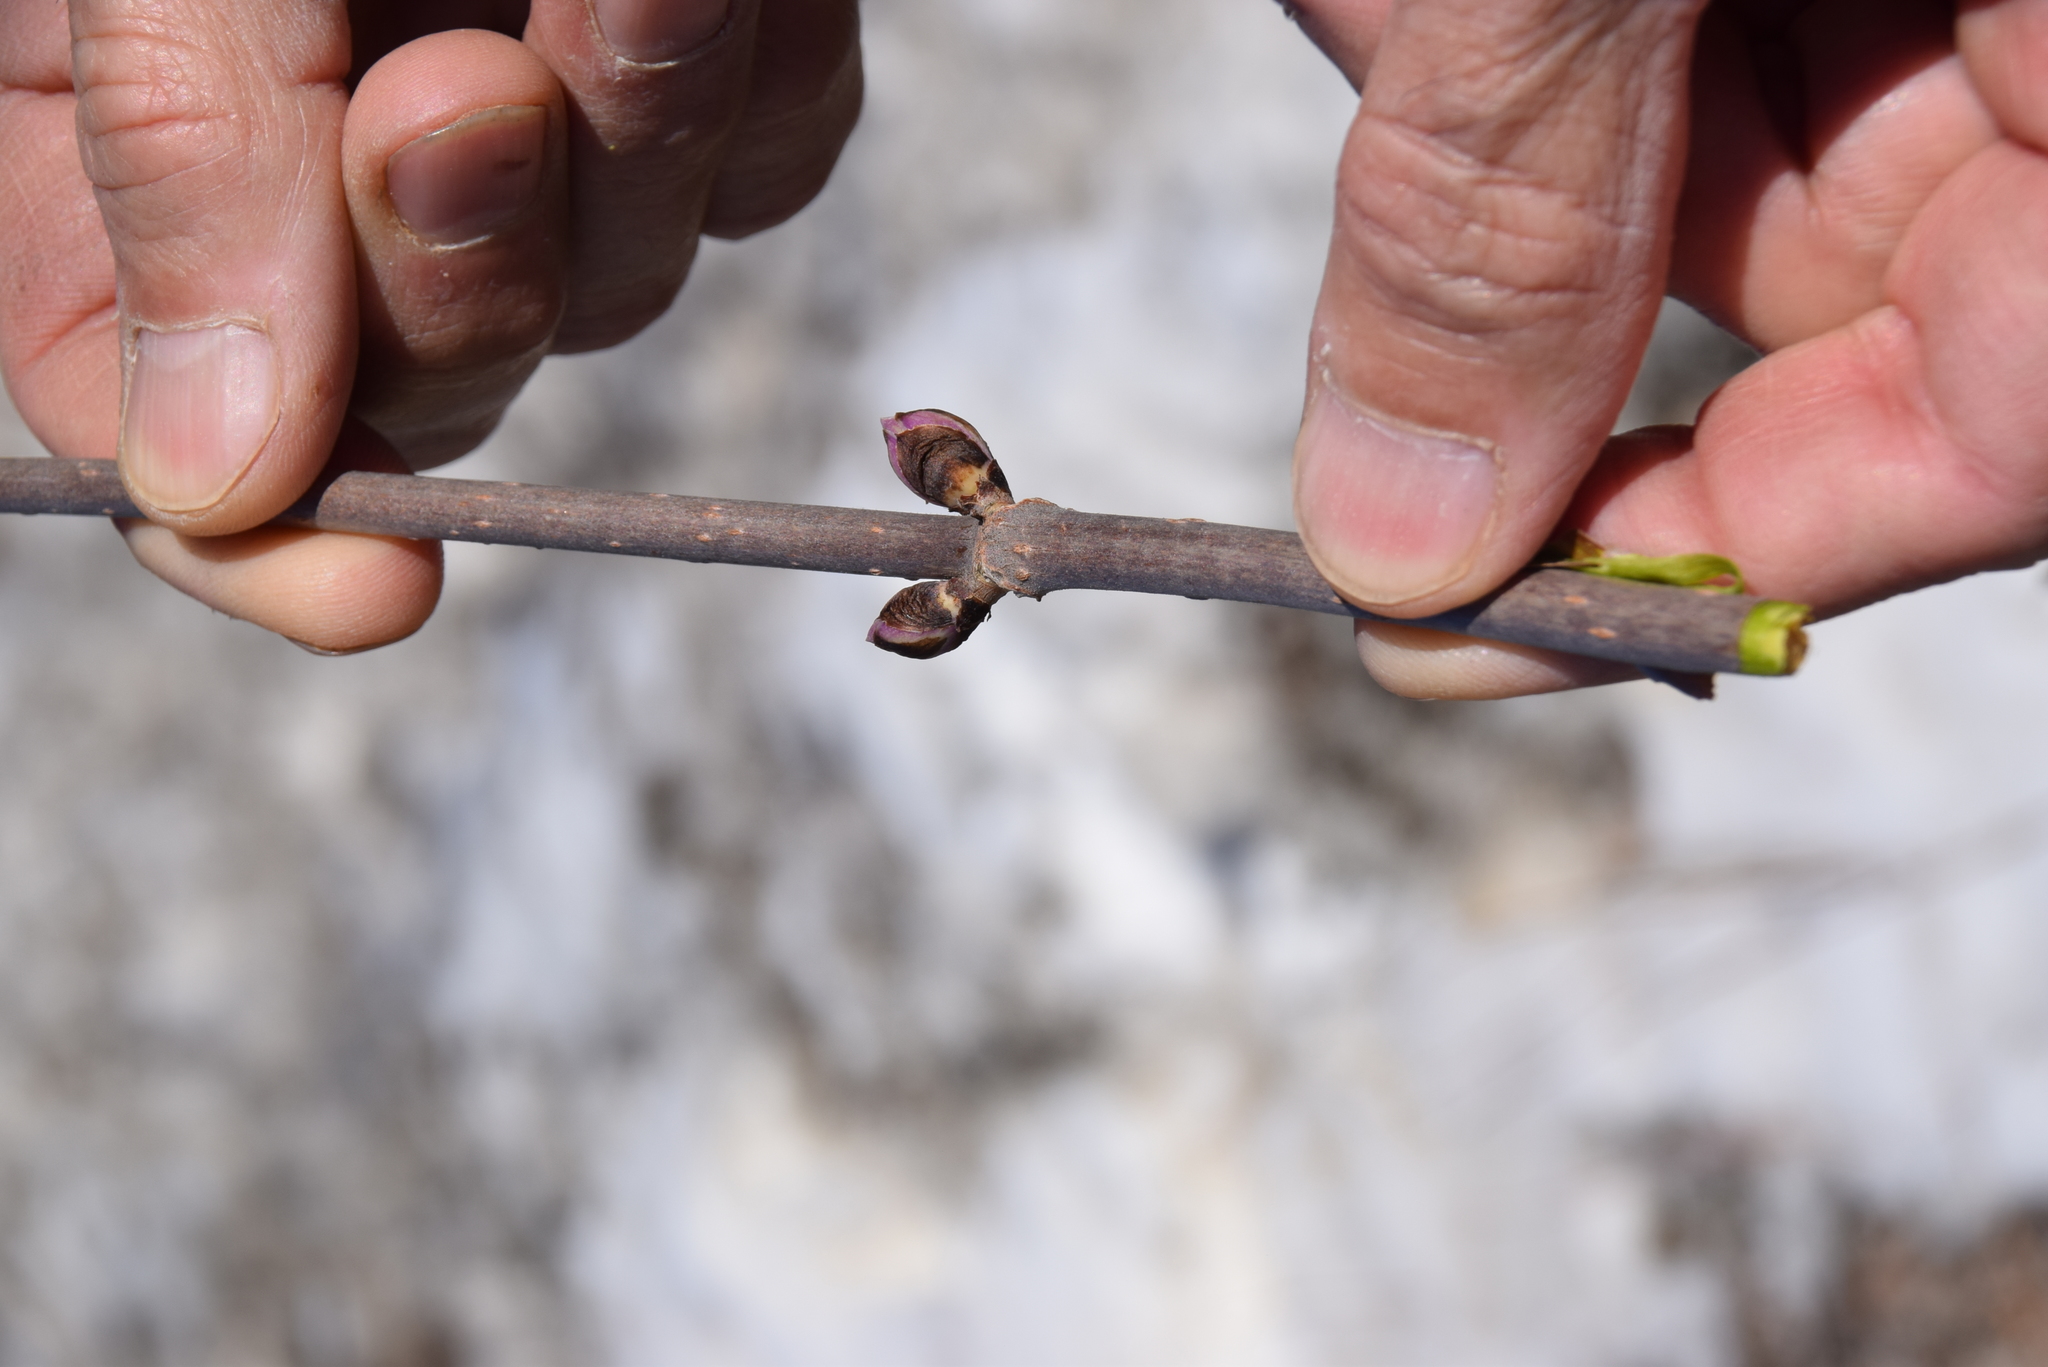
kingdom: Plantae
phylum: Tracheophyta
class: Magnoliopsida
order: Dipsacales
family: Viburnaceae
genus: Sambucus
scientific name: Sambucus racemosa
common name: Red-berried elder
